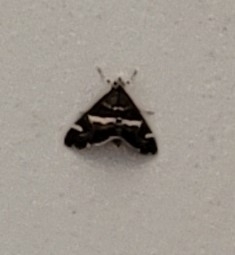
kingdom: Animalia
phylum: Arthropoda
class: Insecta
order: Lepidoptera
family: Crambidae
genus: Spoladea
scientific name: Spoladea recurvalis
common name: Beet webworm moth
